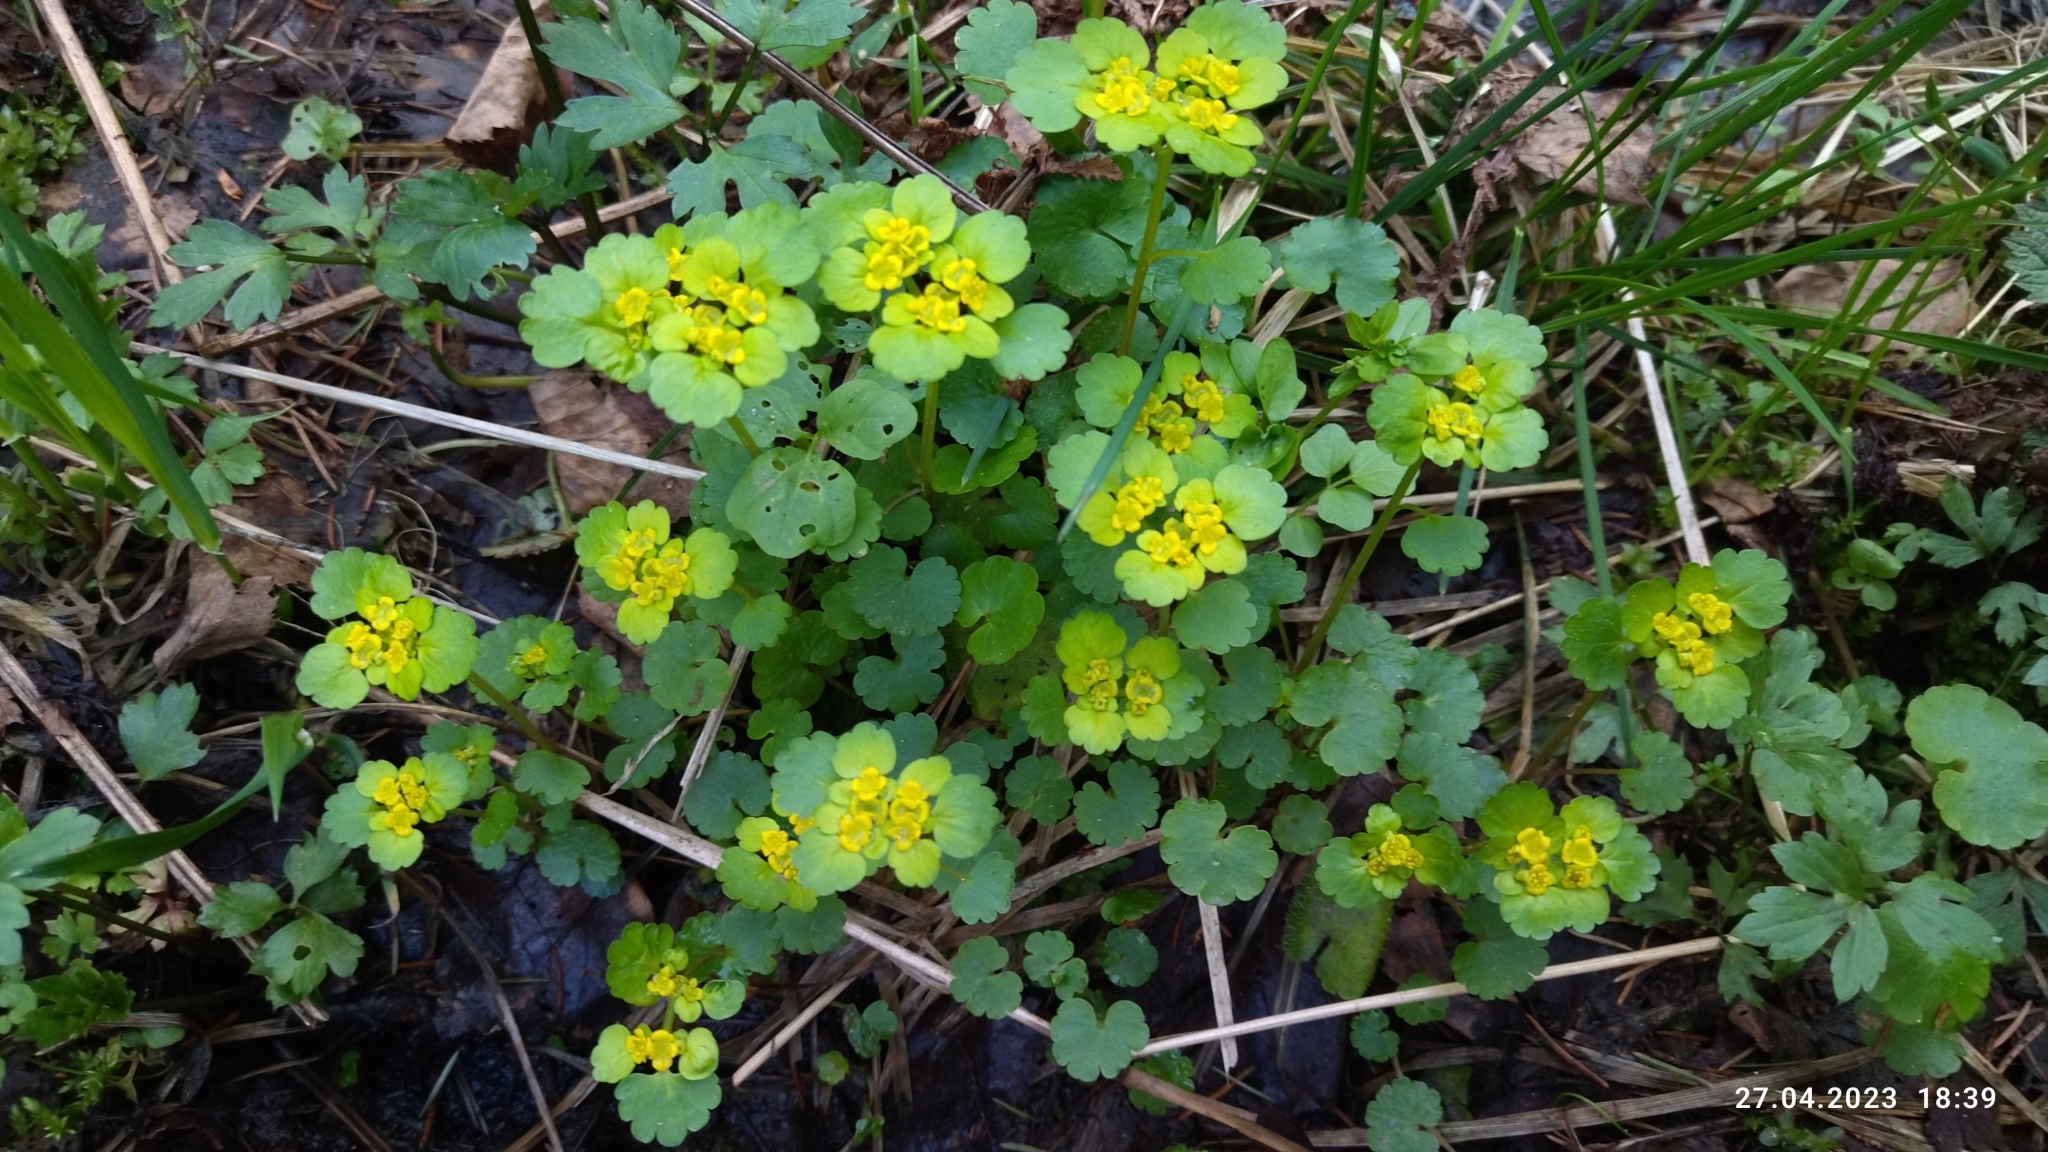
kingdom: Plantae
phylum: Tracheophyta
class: Magnoliopsida
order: Saxifragales
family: Saxifragaceae
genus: Chrysosplenium
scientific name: Chrysosplenium alternifolium
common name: Alternate-leaved golden-saxifrage
